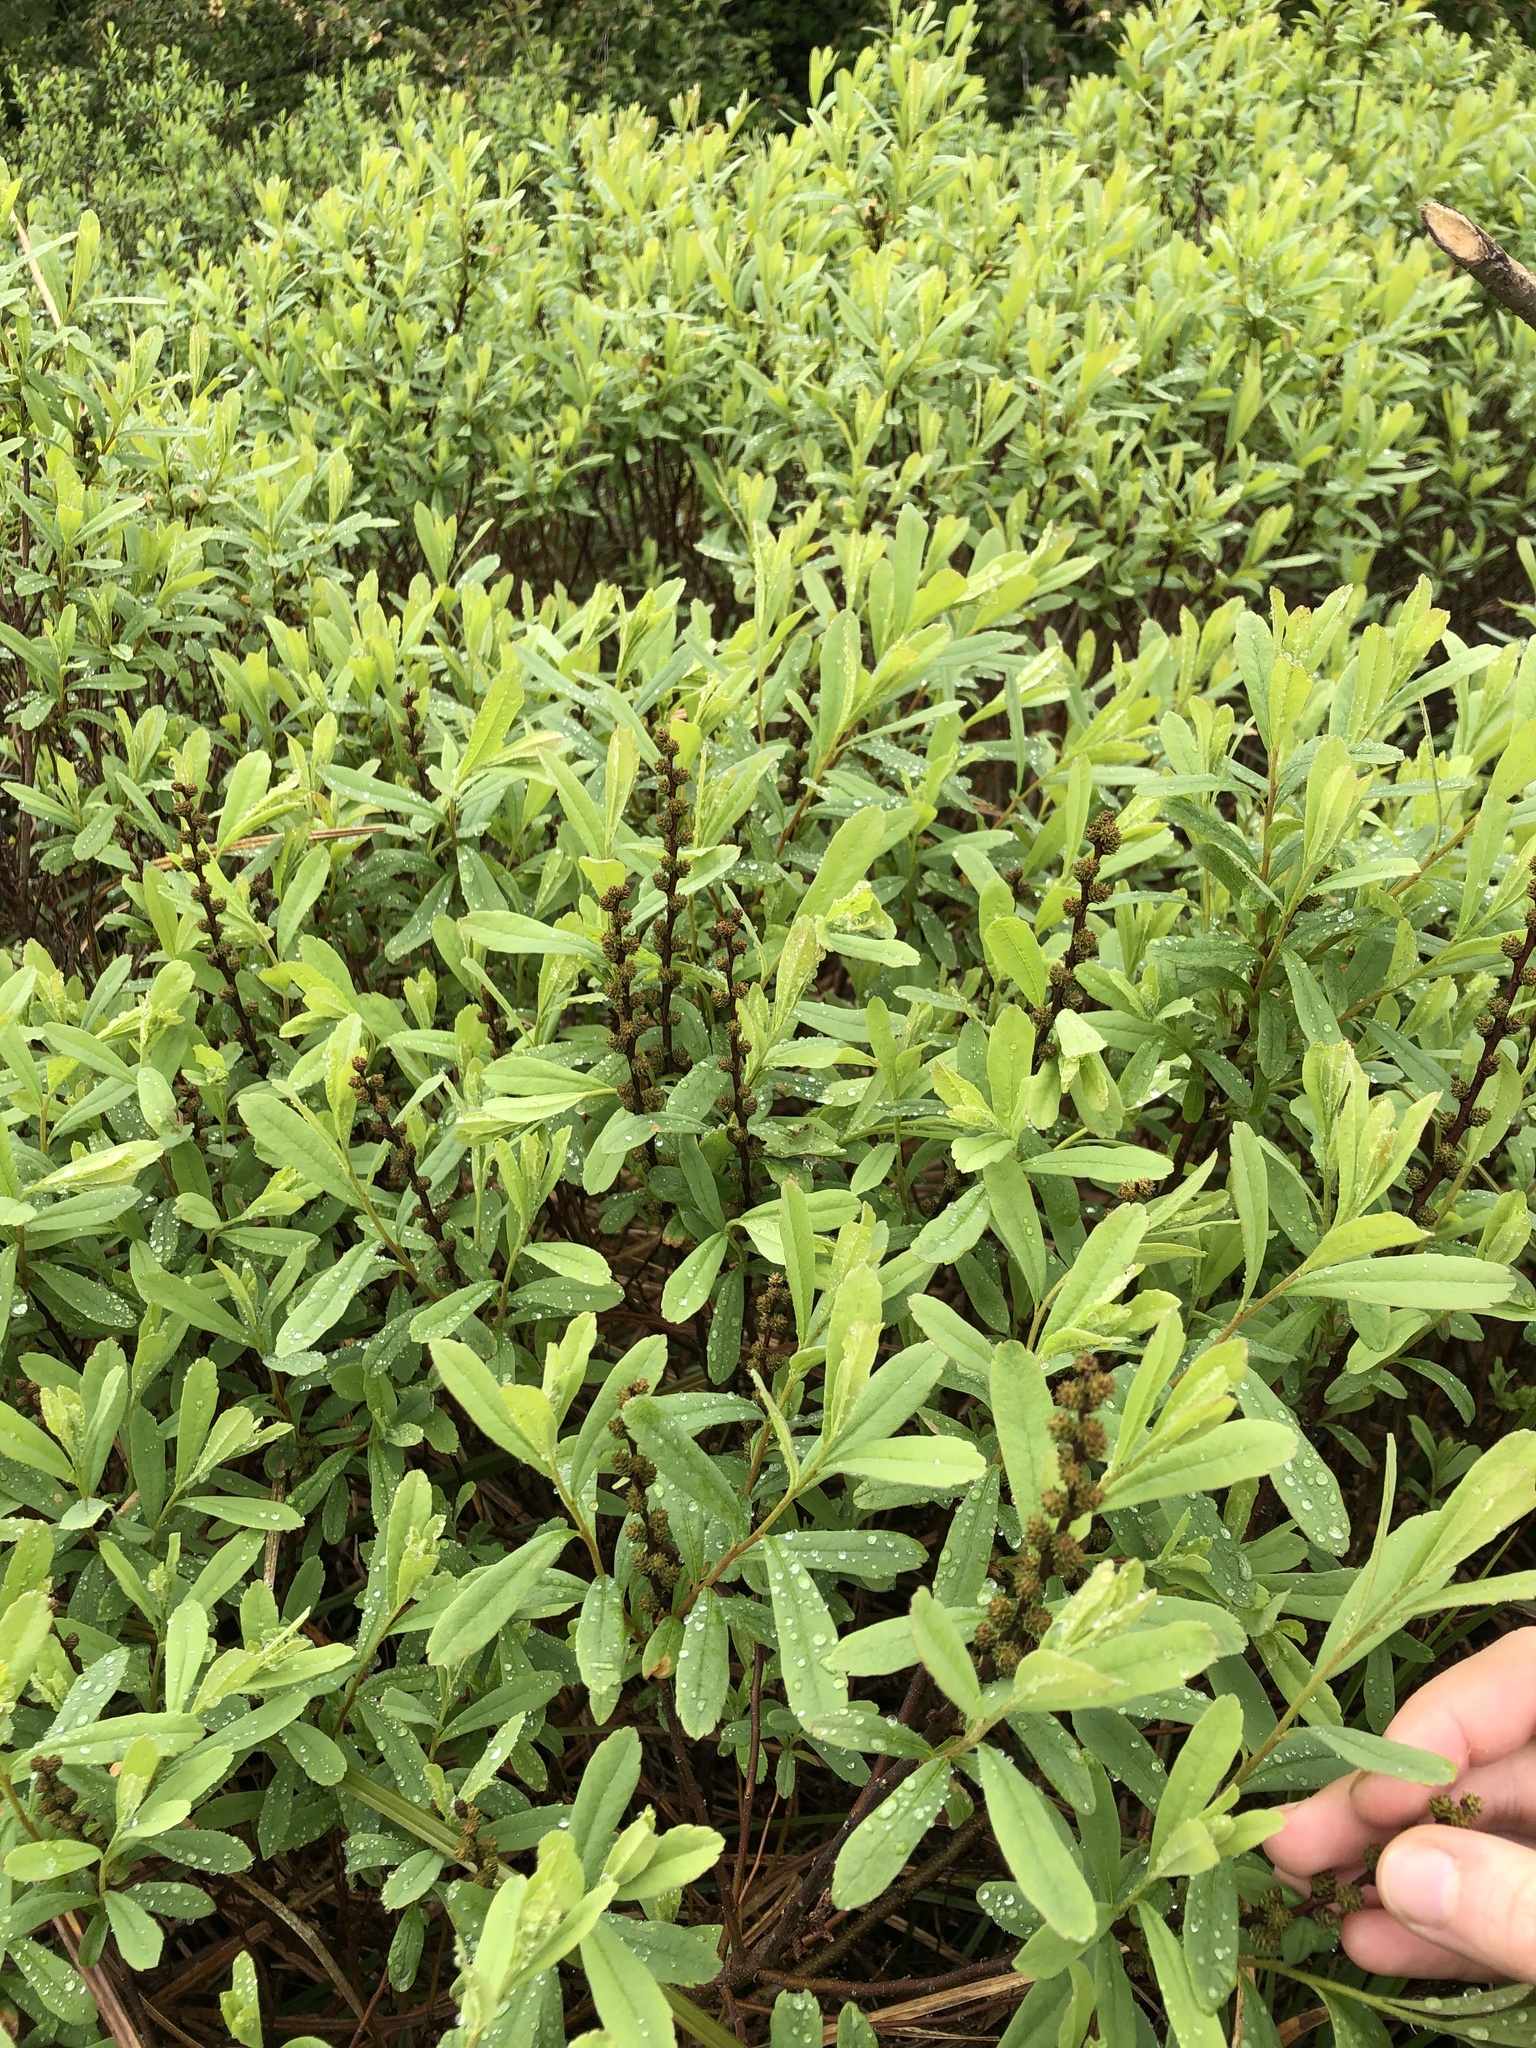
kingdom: Plantae
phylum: Tracheophyta
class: Magnoliopsida
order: Fagales
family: Myricaceae
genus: Myrica
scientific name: Myrica gale
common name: Sweet gale
